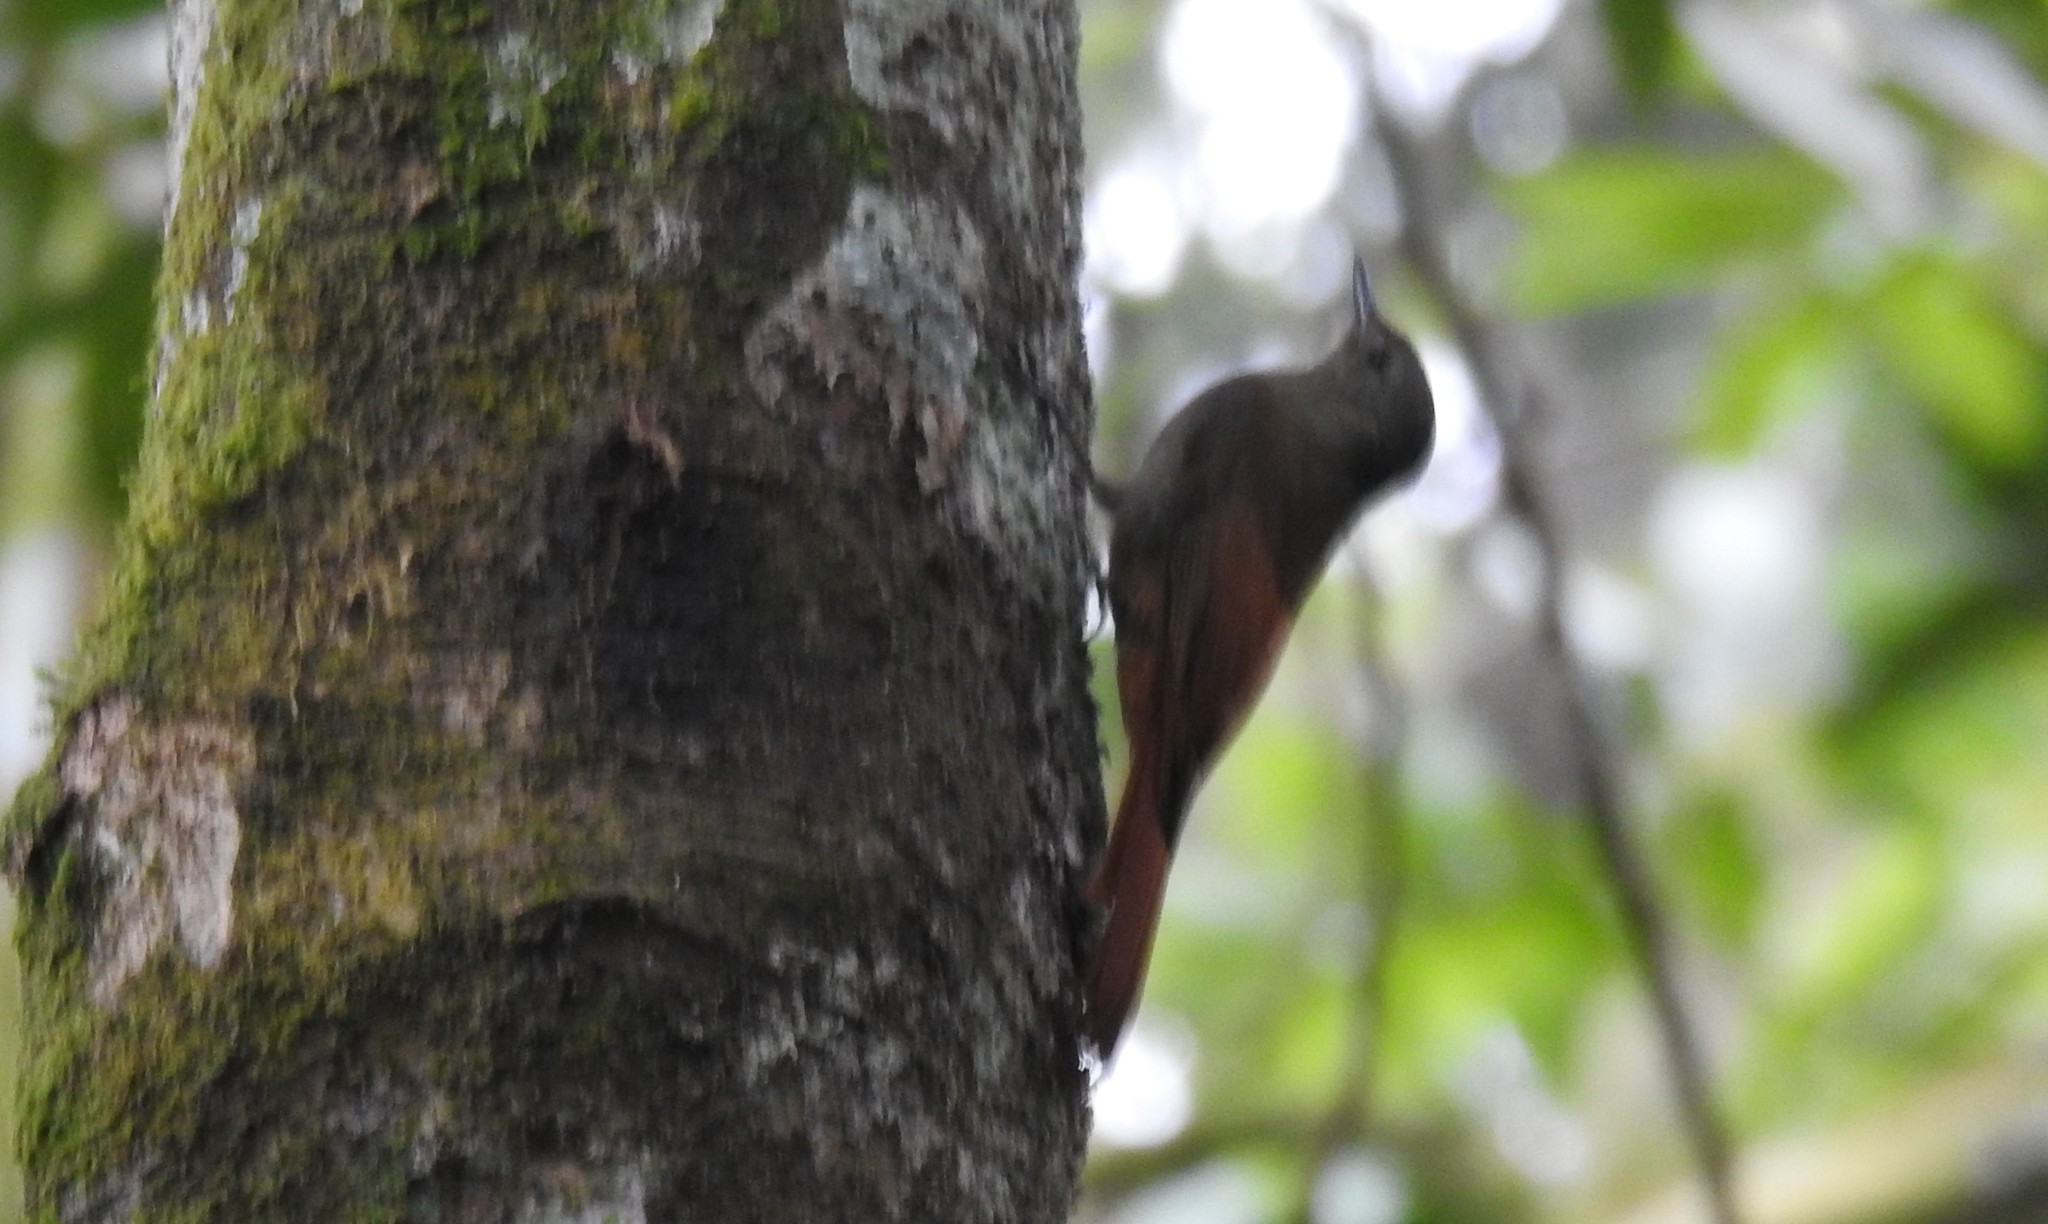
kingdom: Animalia
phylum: Chordata
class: Aves
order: Passeriformes
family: Furnariidae
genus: Sittasomus
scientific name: Sittasomus griseicapillus
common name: Olivaceous woodcreeper
